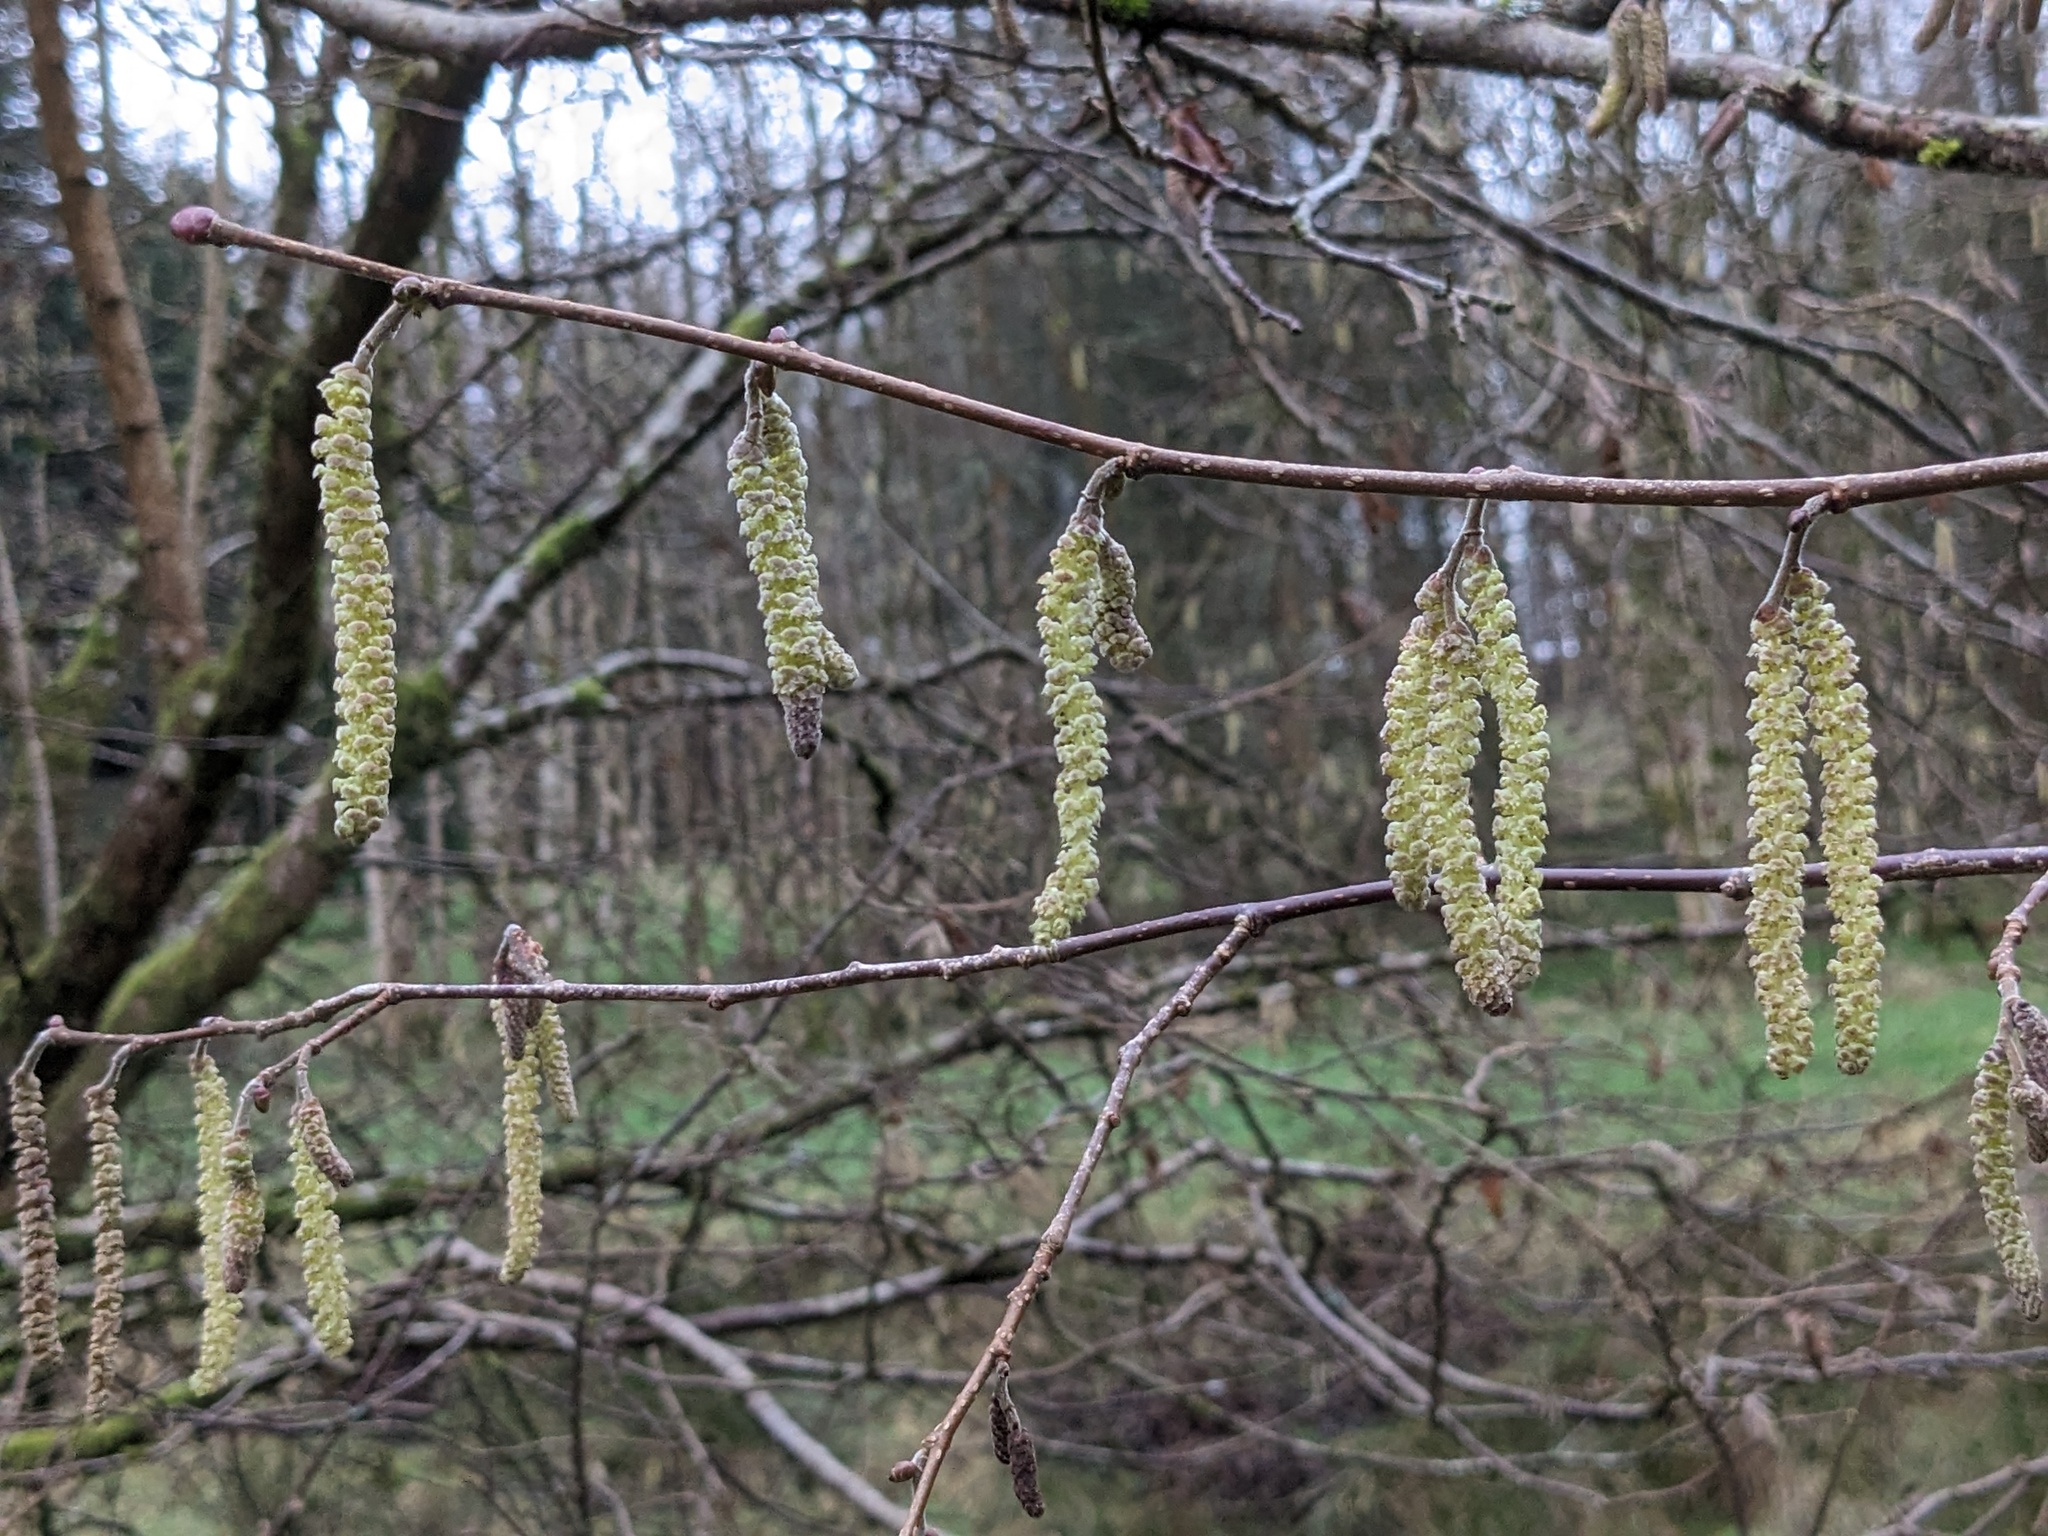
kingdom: Plantae
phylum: Tracheophyta
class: Magnoliopsida
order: Fagales
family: Betulaceae
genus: Corylus
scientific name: Corylus avellana
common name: European hazel
